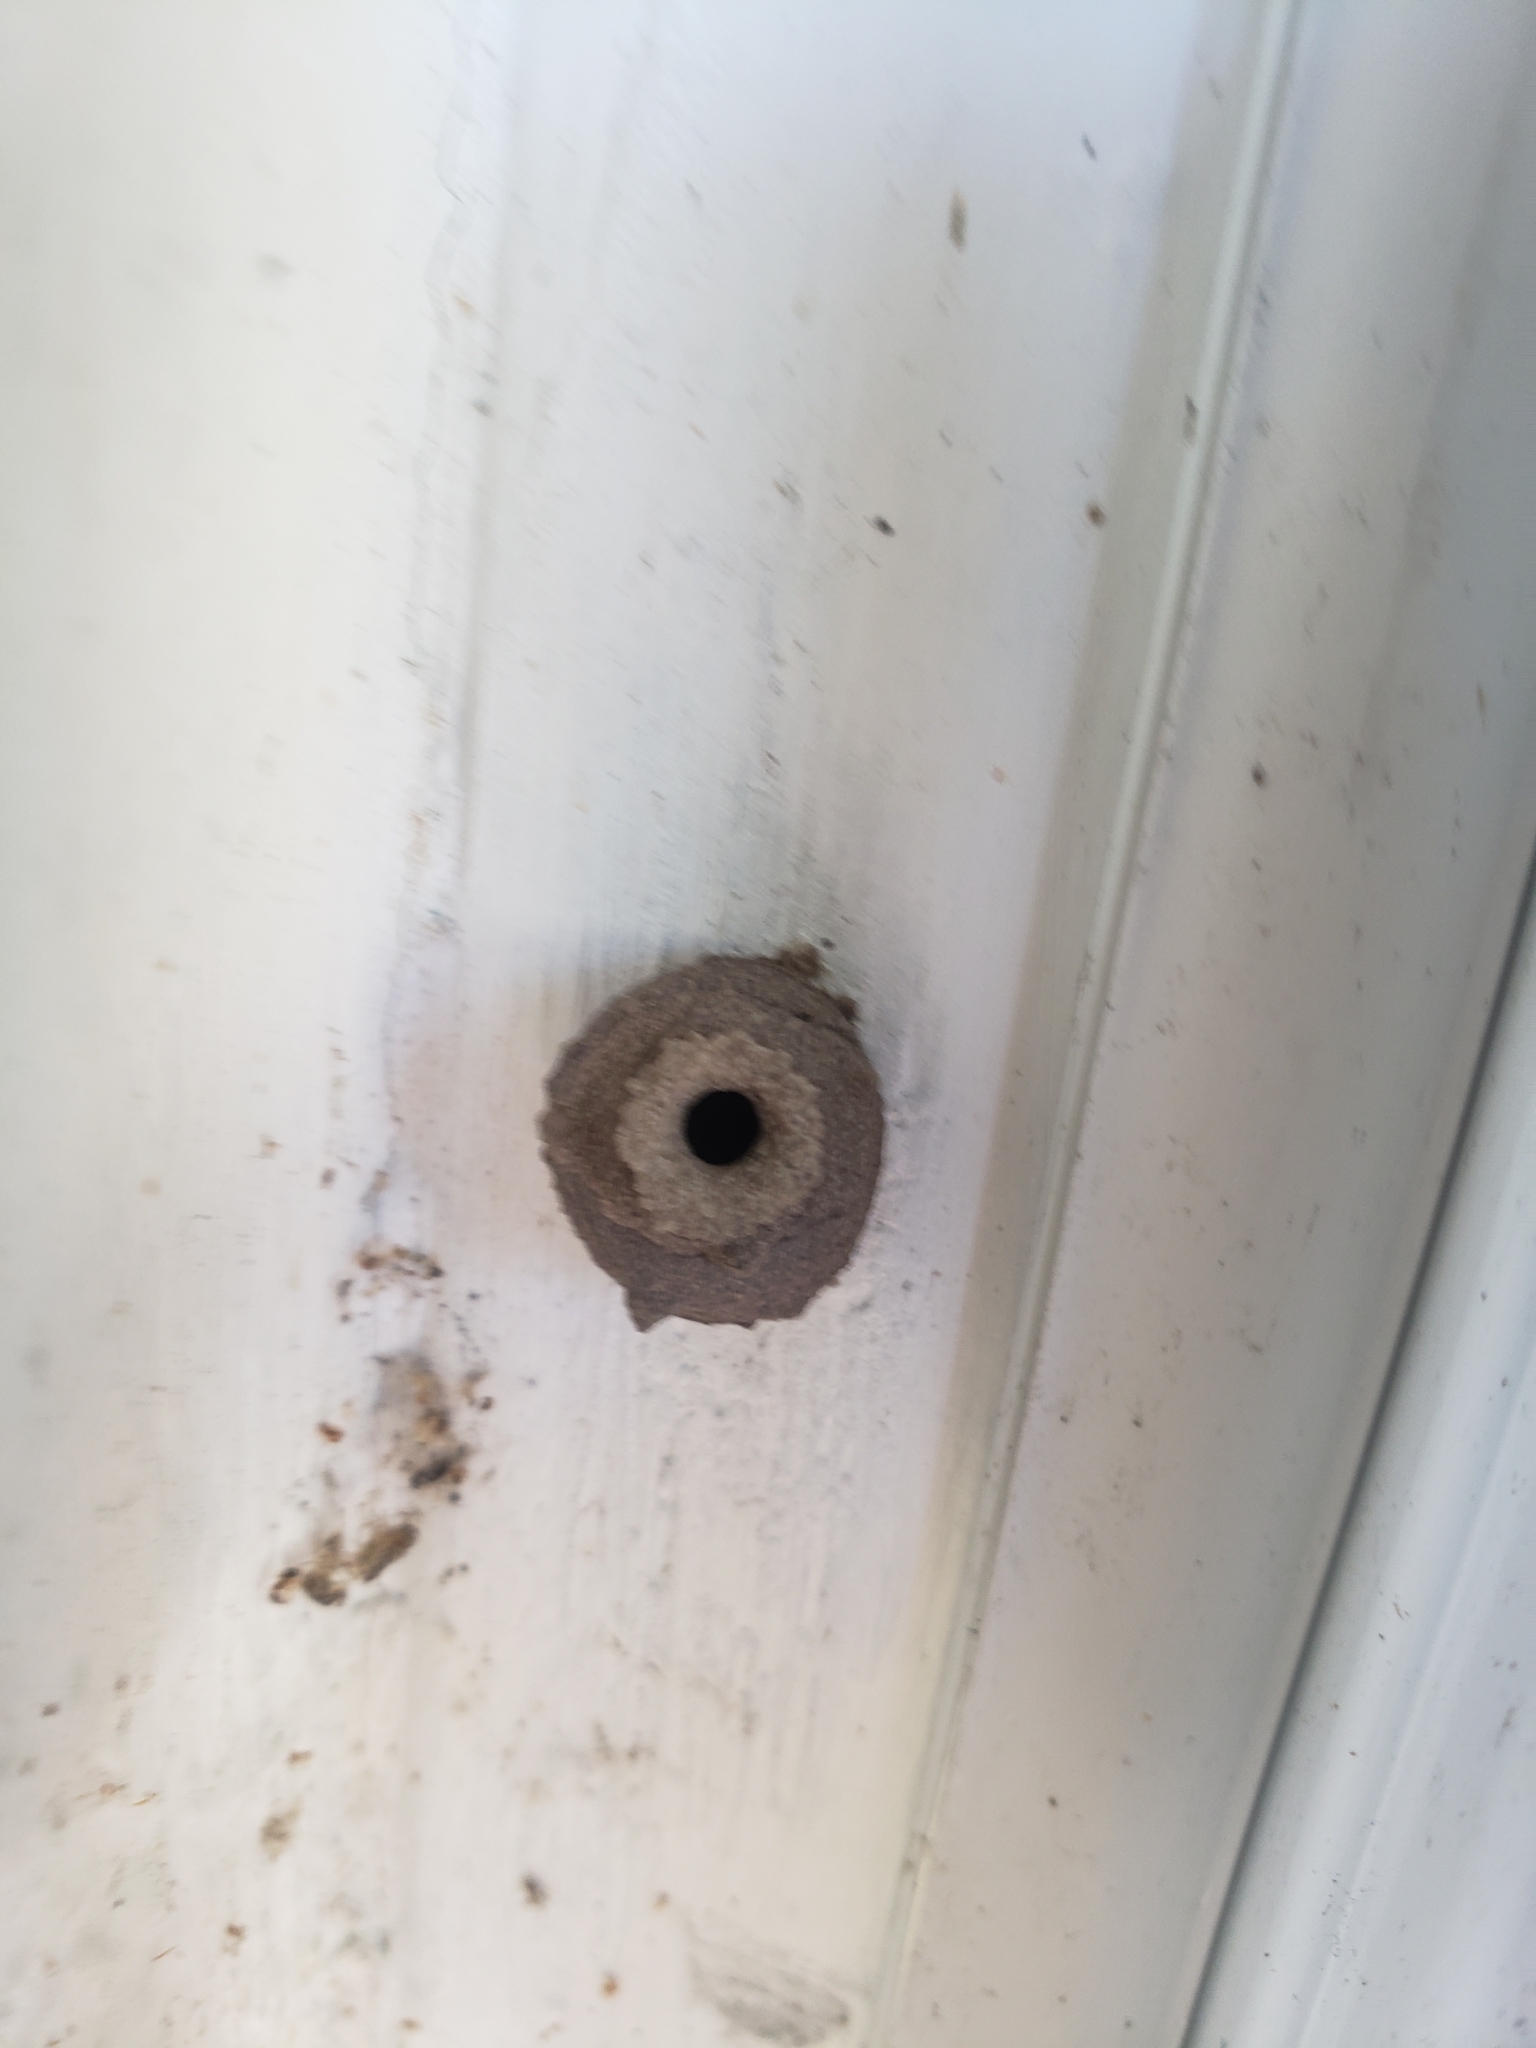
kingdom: Animalia
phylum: Arthropoda
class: Insecta
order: Hymenoptera
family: Vespidae
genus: Eumenes
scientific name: Eumenes
